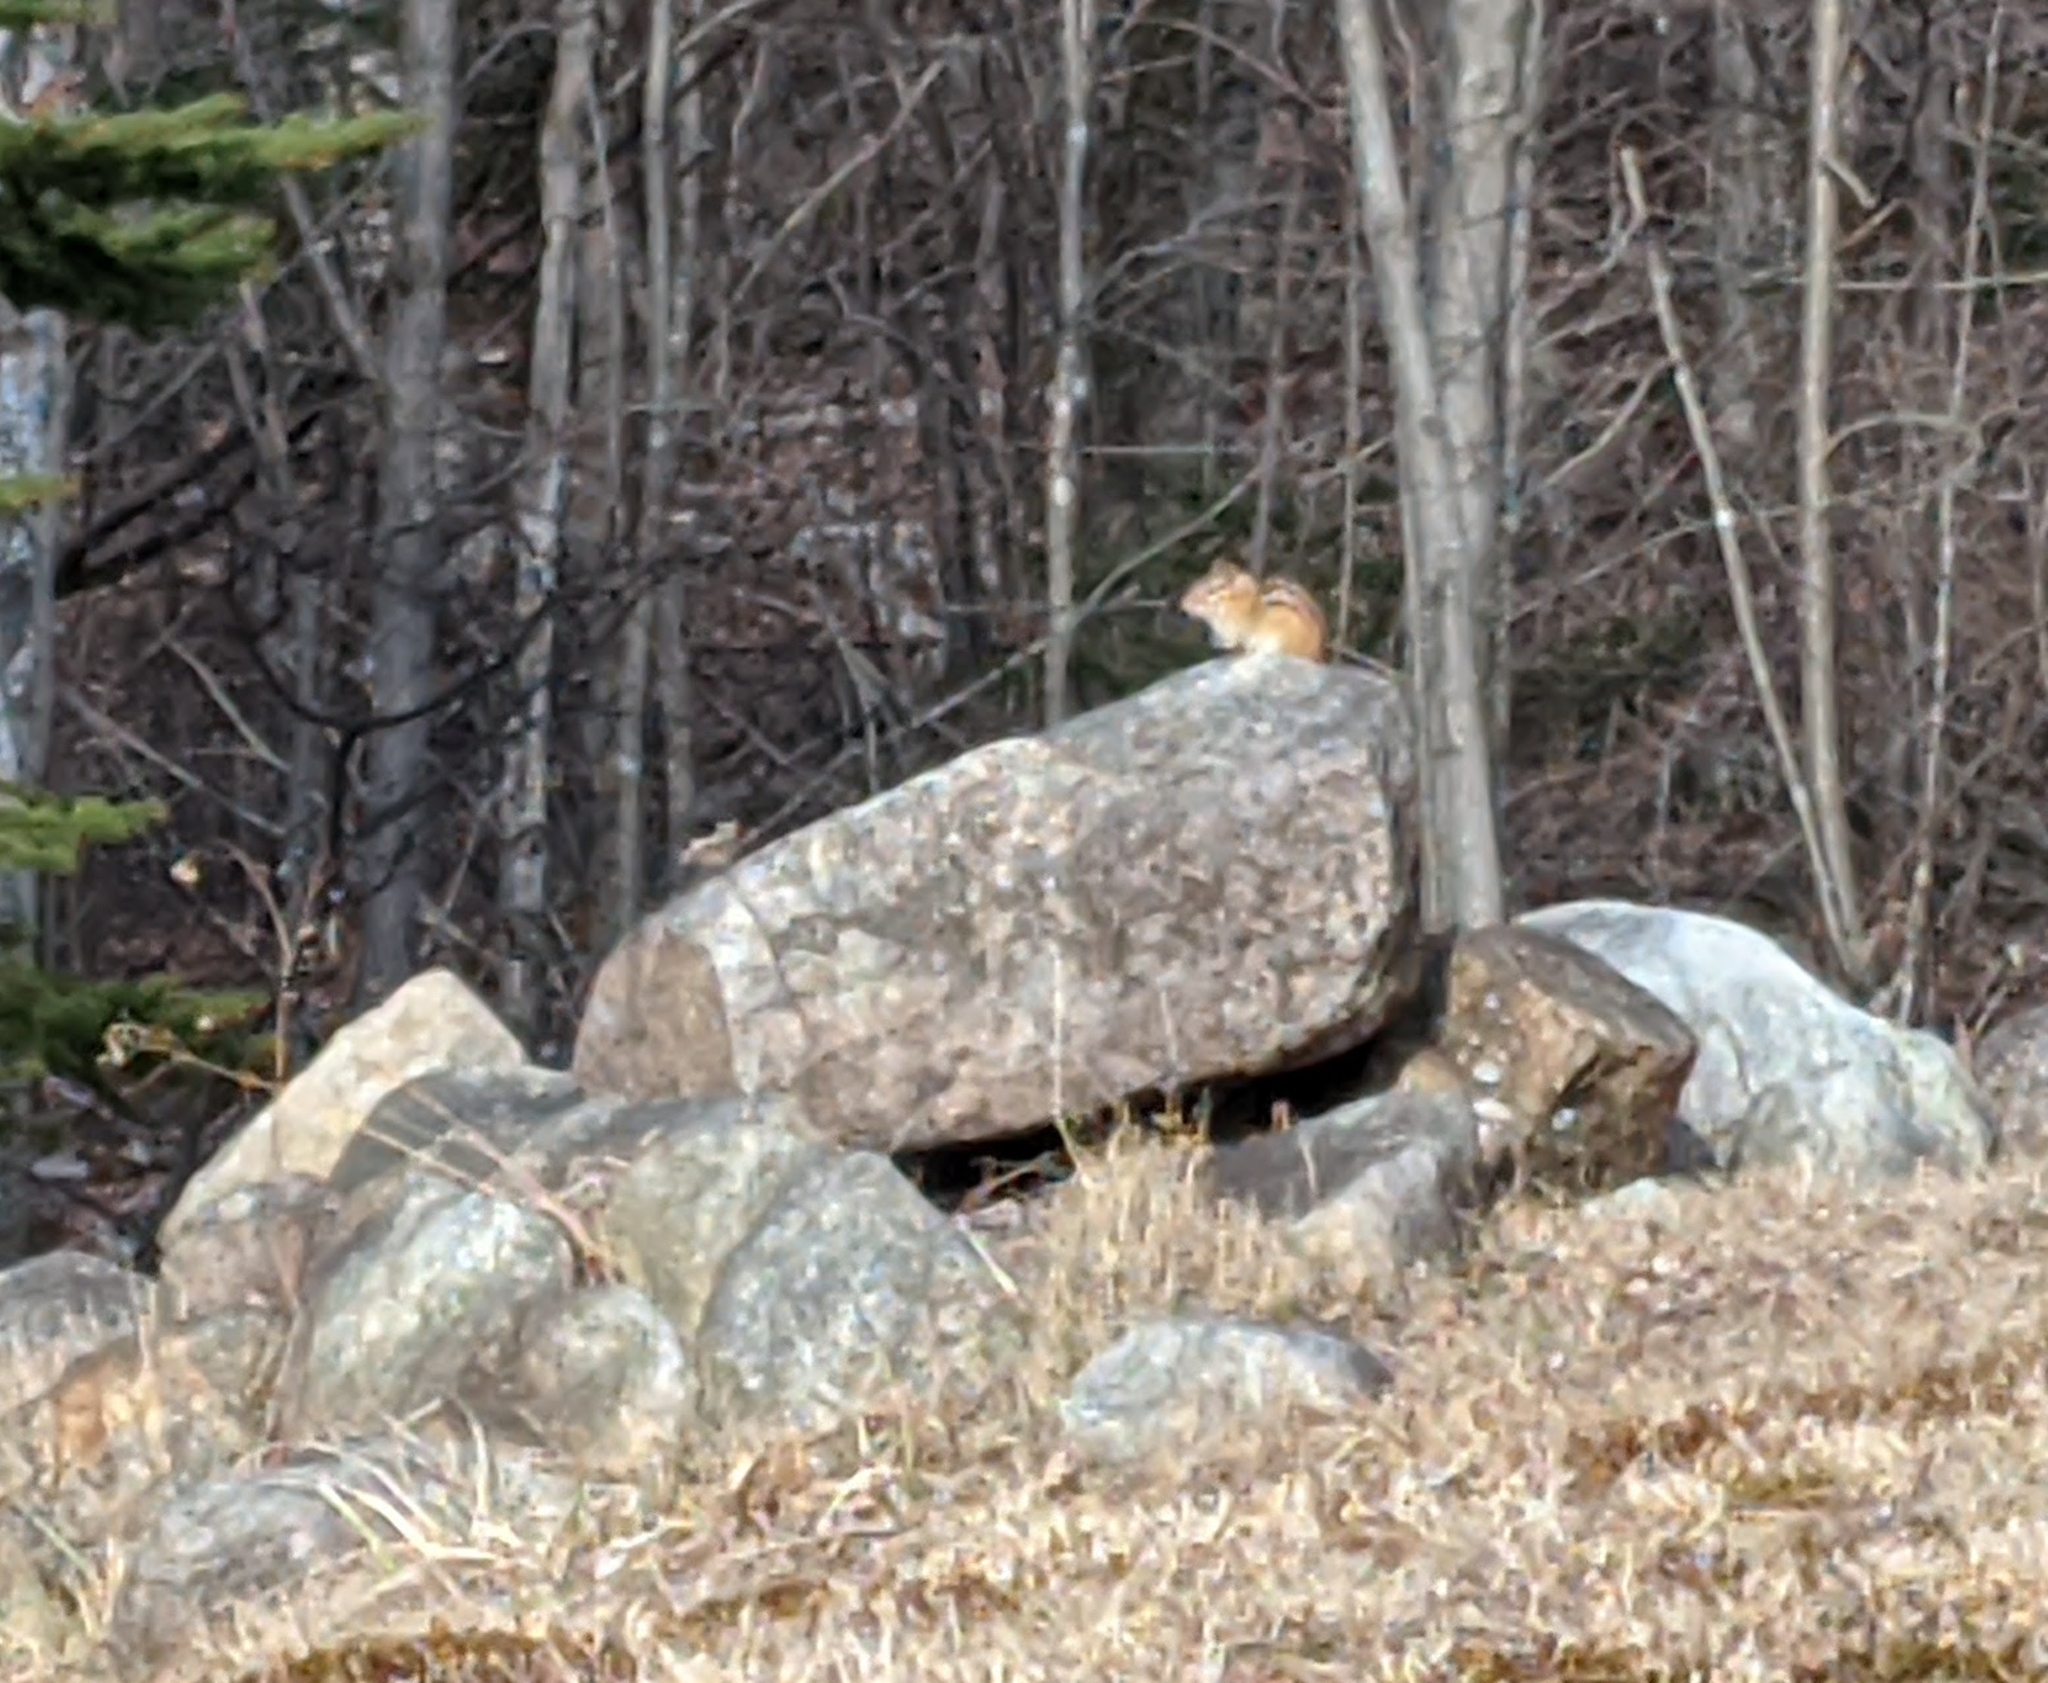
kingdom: Animalia
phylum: Chordata
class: Mammalia
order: Rodentia
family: Sciuridae
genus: Tamias
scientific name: Tamias striatus
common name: Eastern chipmunk
